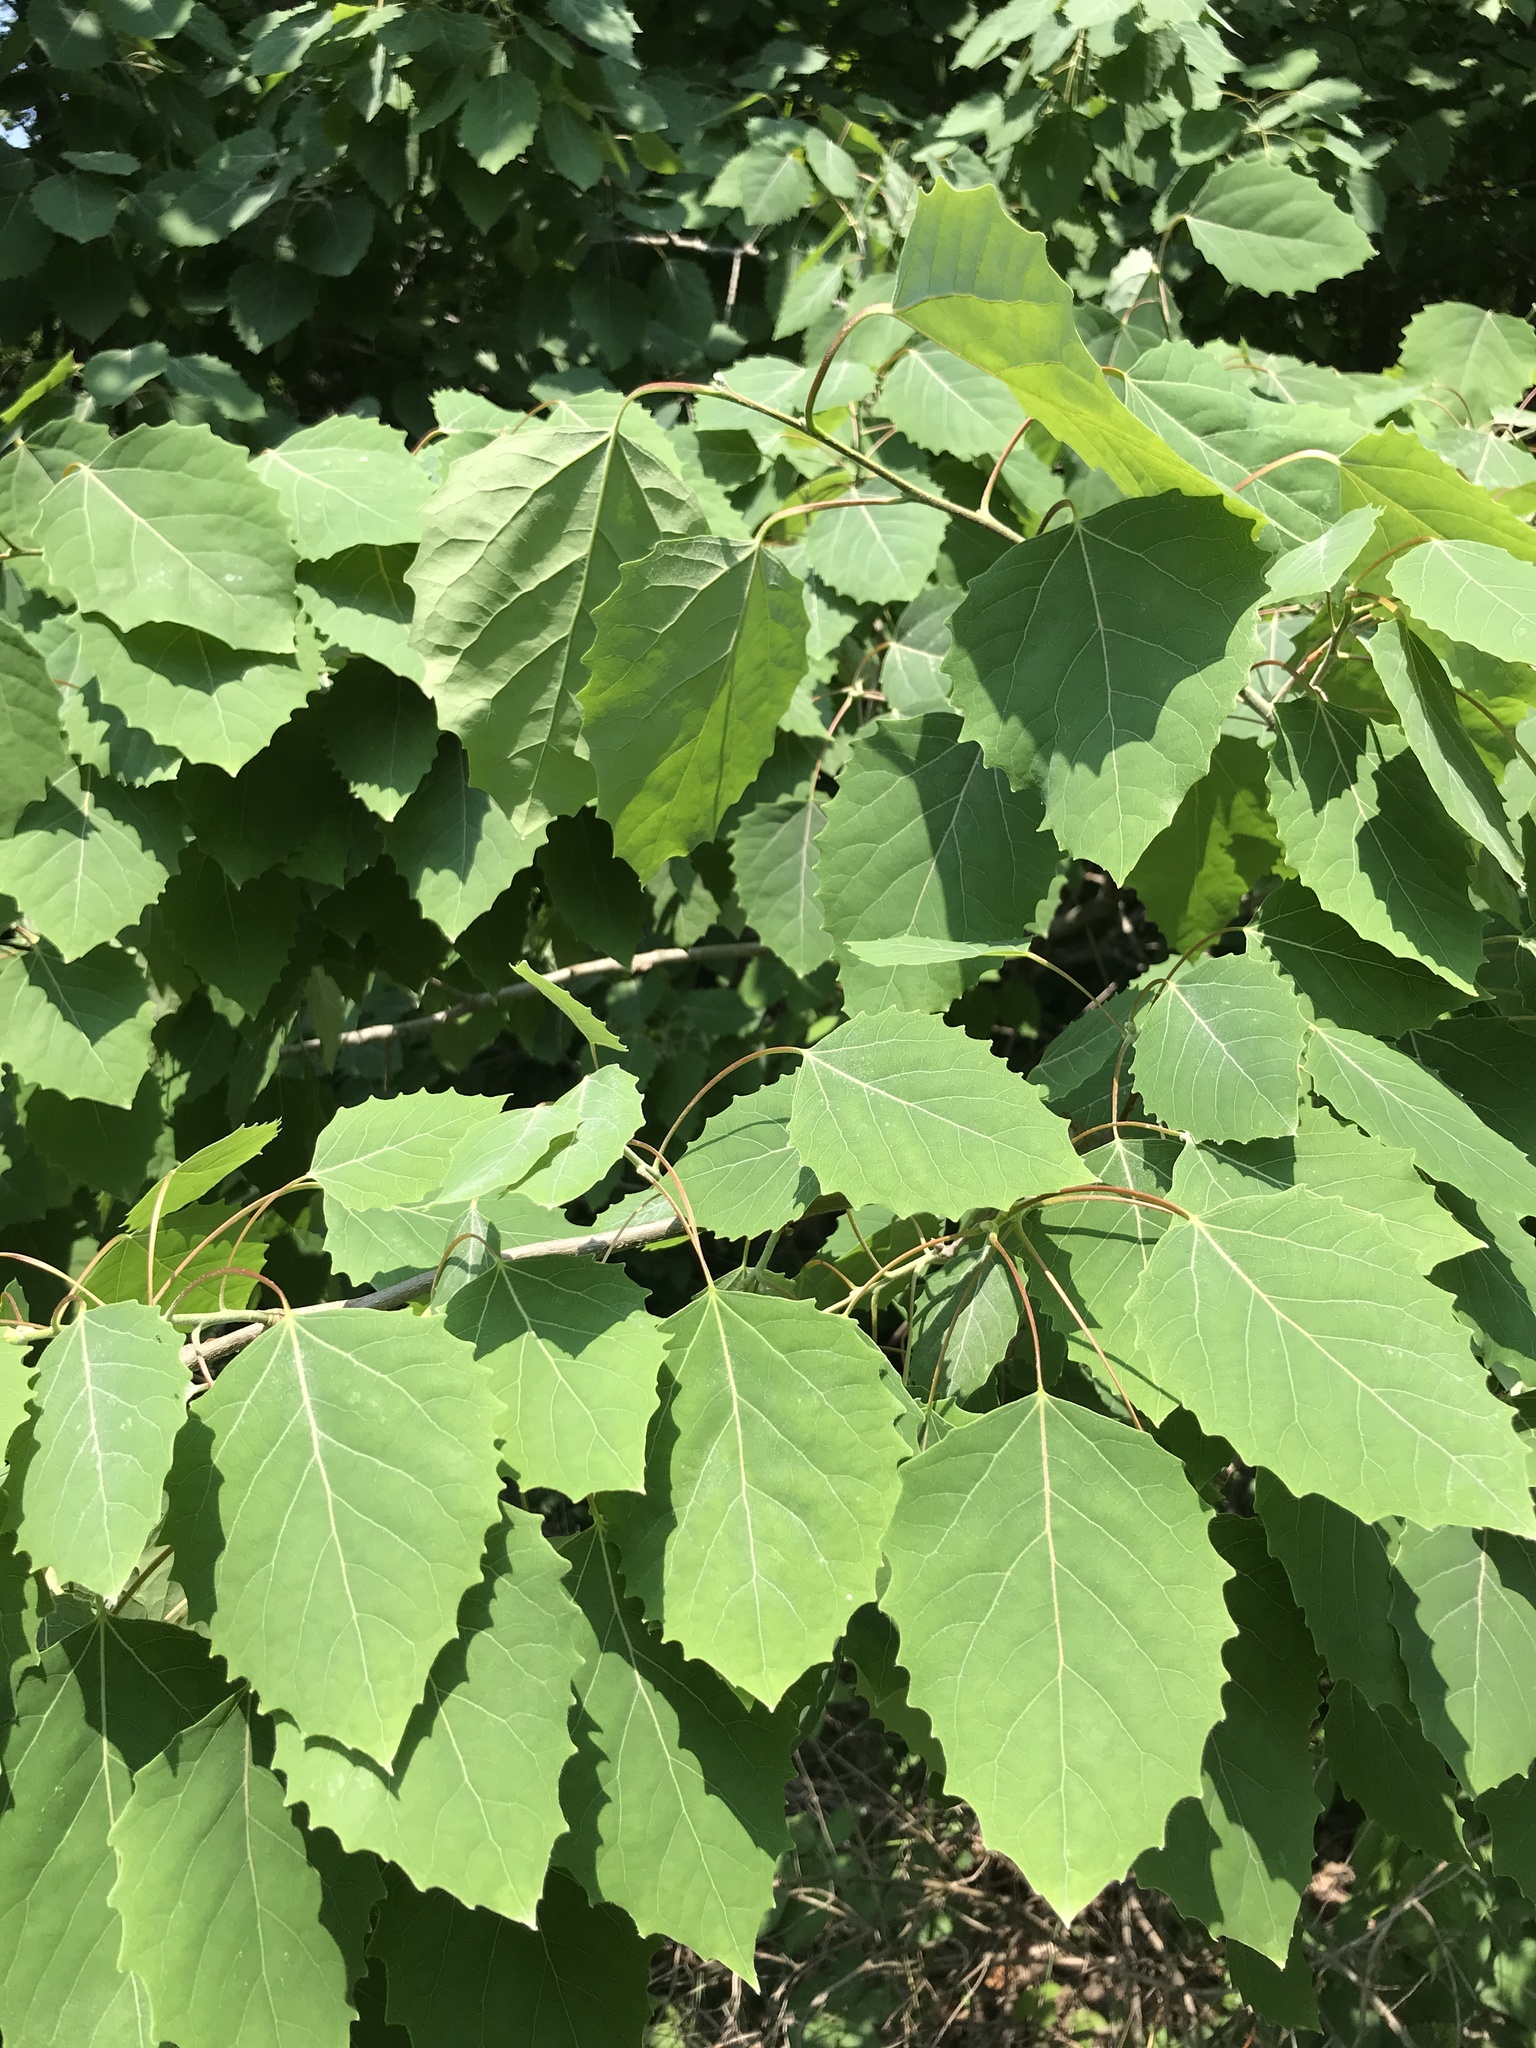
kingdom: Plantae
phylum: Tracheophyta
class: Magnoliopsida
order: Malpighiales
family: Salicaceae
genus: Populus
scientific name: Populus grandidentata
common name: Bigtooth aspen
